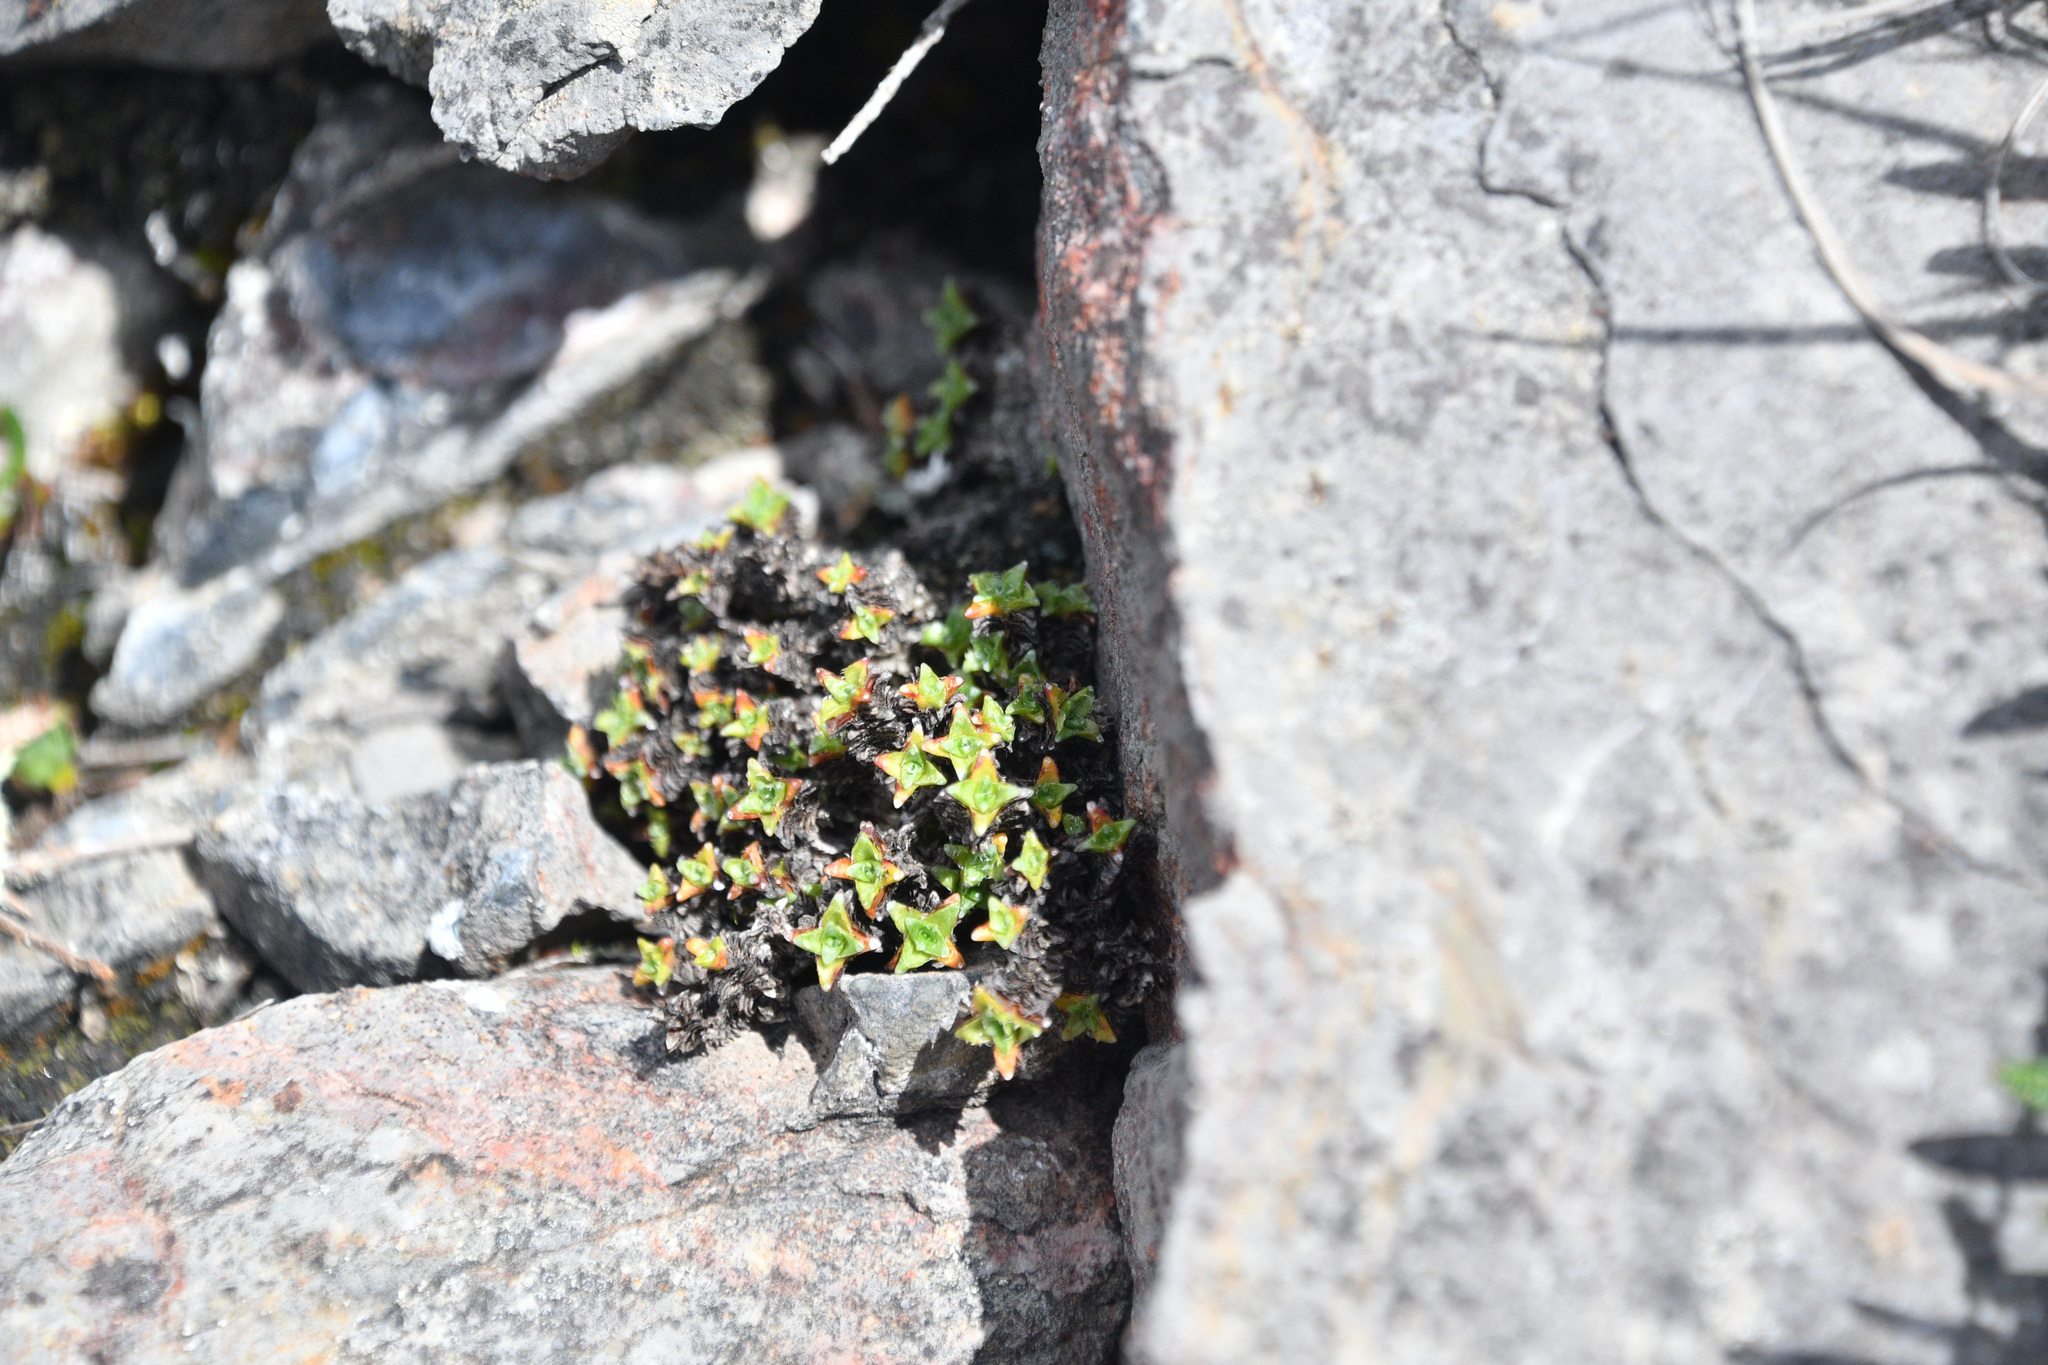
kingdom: Plantae
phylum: Tracheophyta
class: Magnoliopsida
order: Saxifragales
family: Saxifragaceae
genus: Saxifraga
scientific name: Saxifraga oppositifolia
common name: Purple saxifrage
